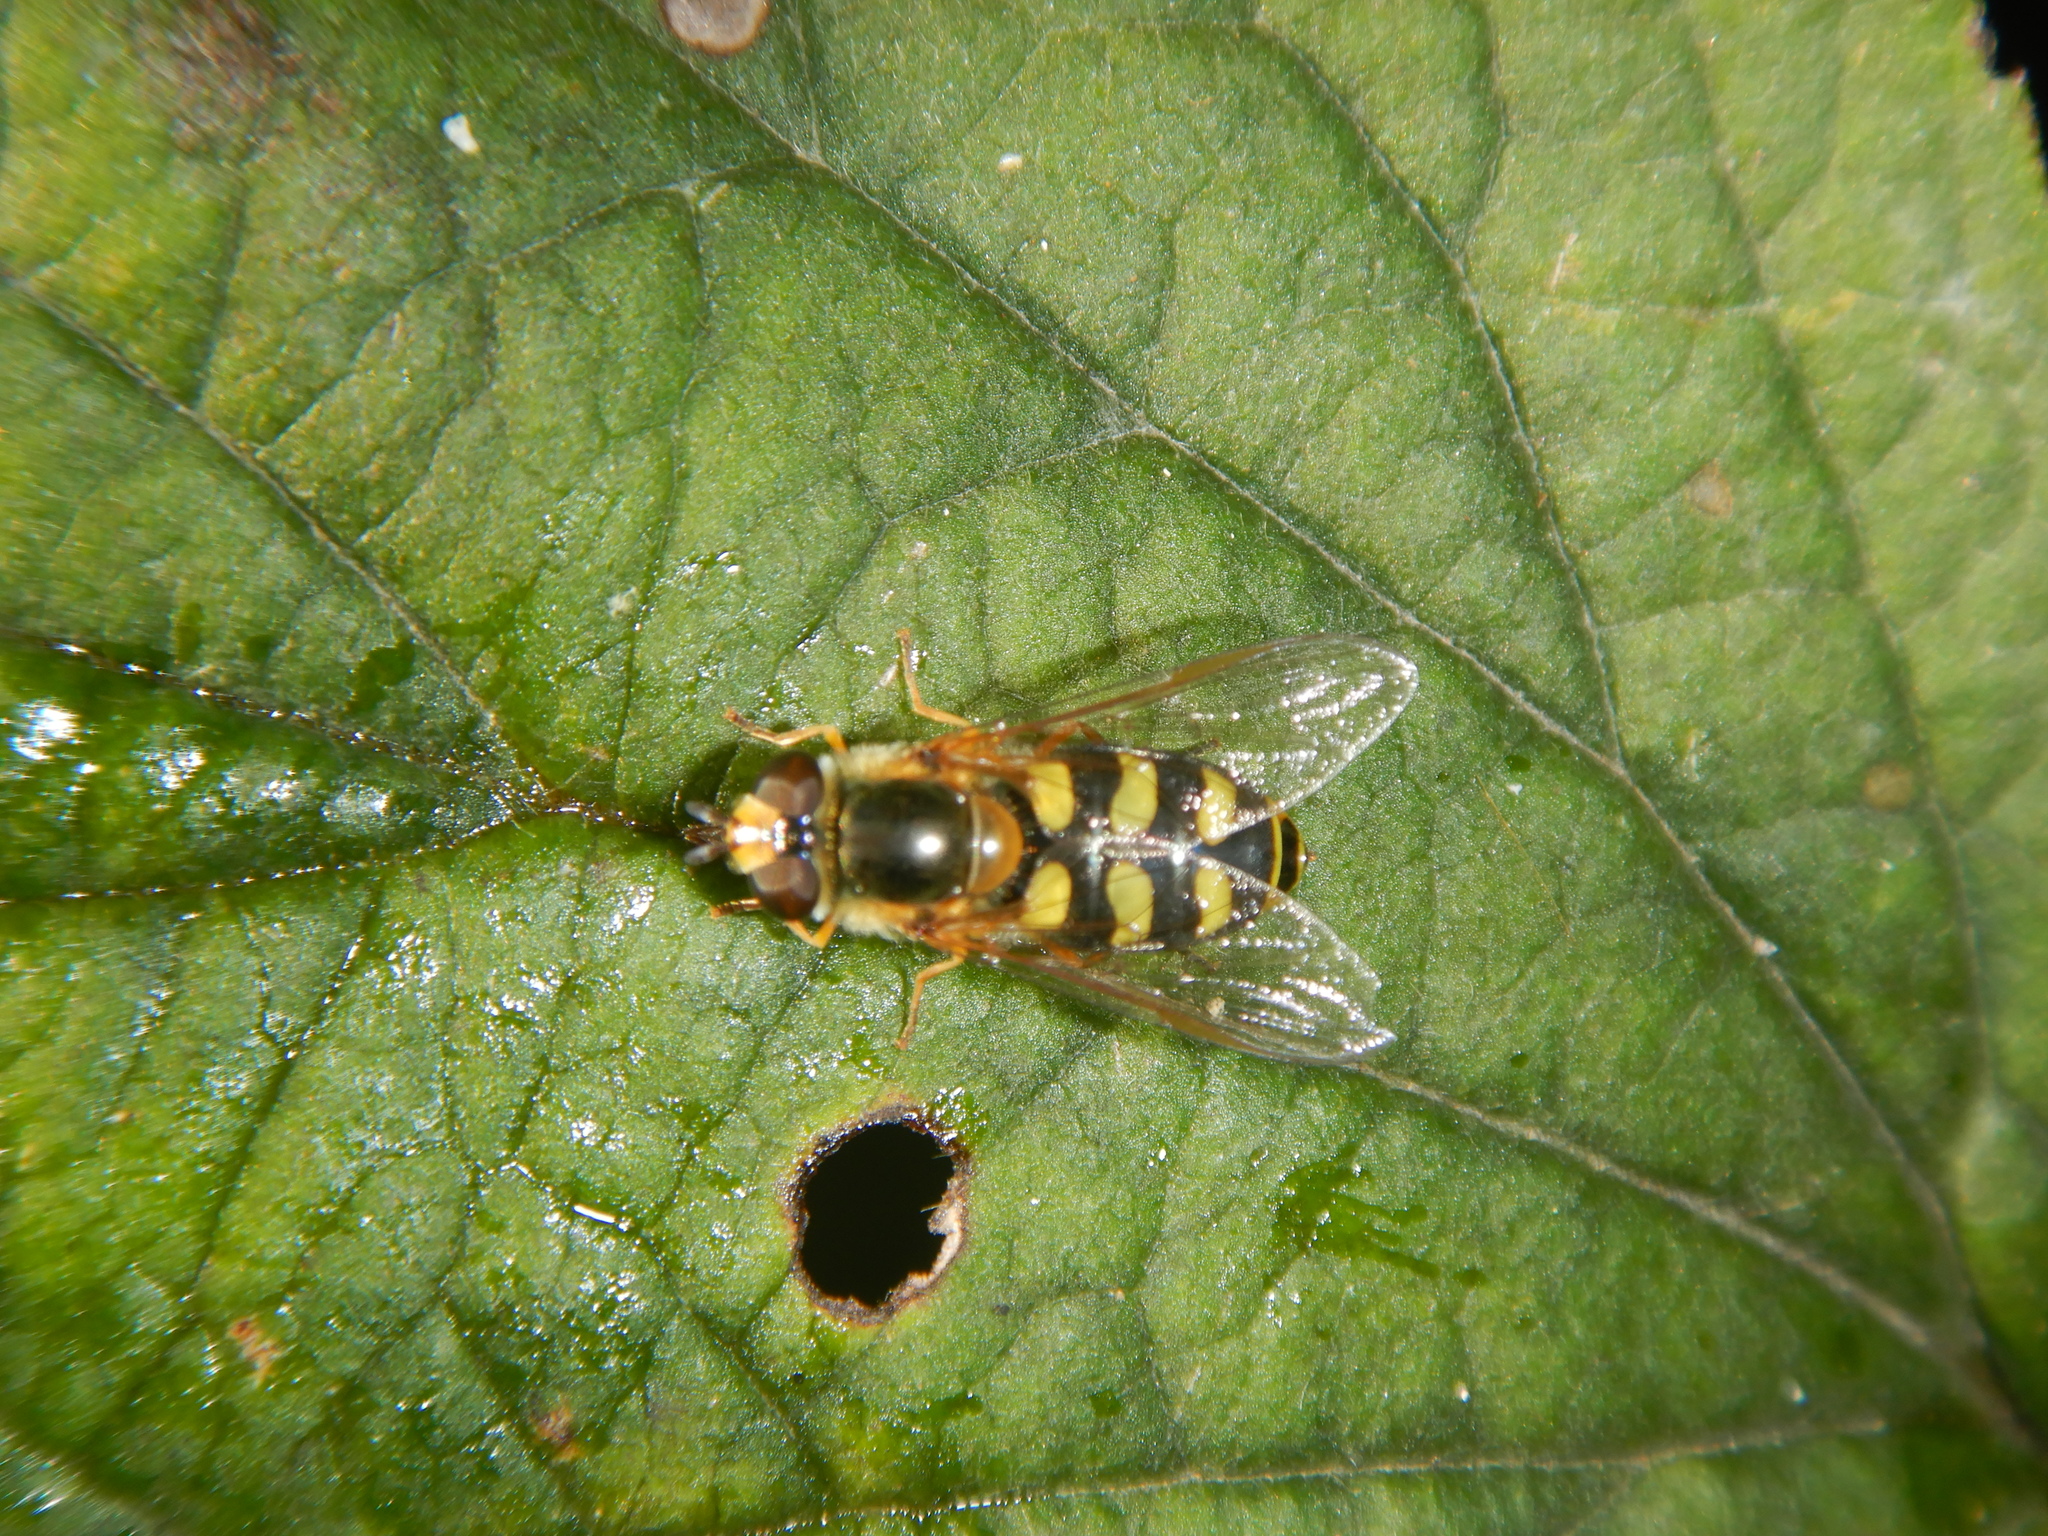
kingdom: Animalia
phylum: Arthropoda
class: Insecta
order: Diptera
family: Syrphidae
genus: Eupeodes
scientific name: Eupeodes
